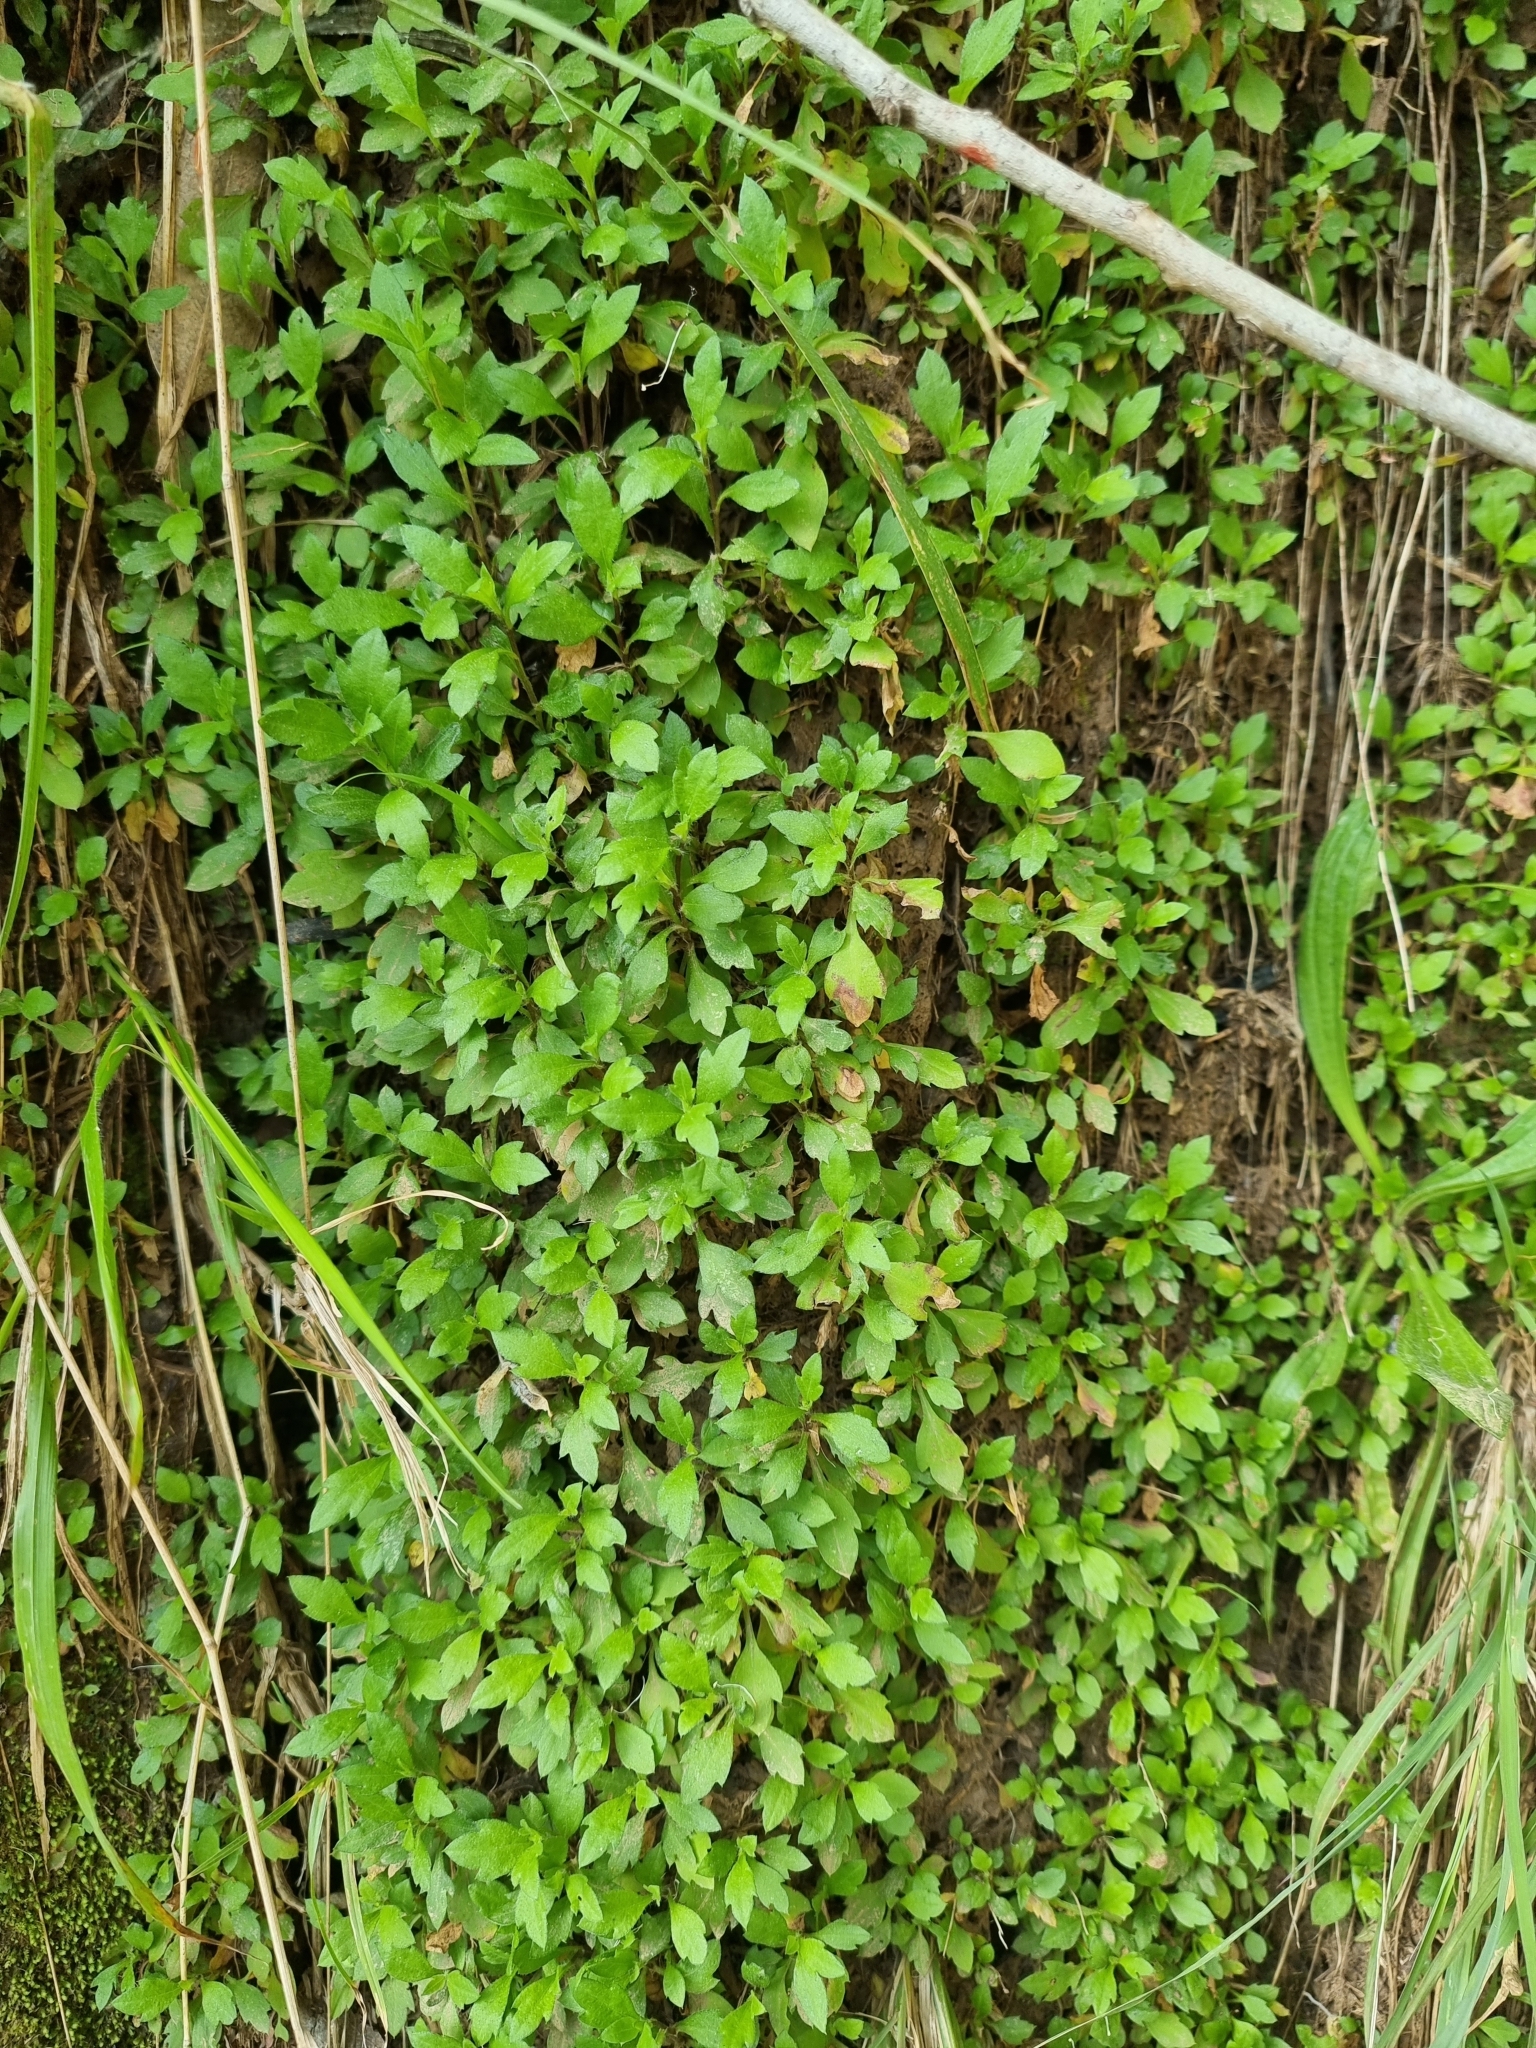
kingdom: Plantae
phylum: Tracheophyta
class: Magnoliopsida
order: Asterales
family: Asteraceae
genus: Erigeron
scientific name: Erigeron karvinskianus
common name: Mexican fleabane
